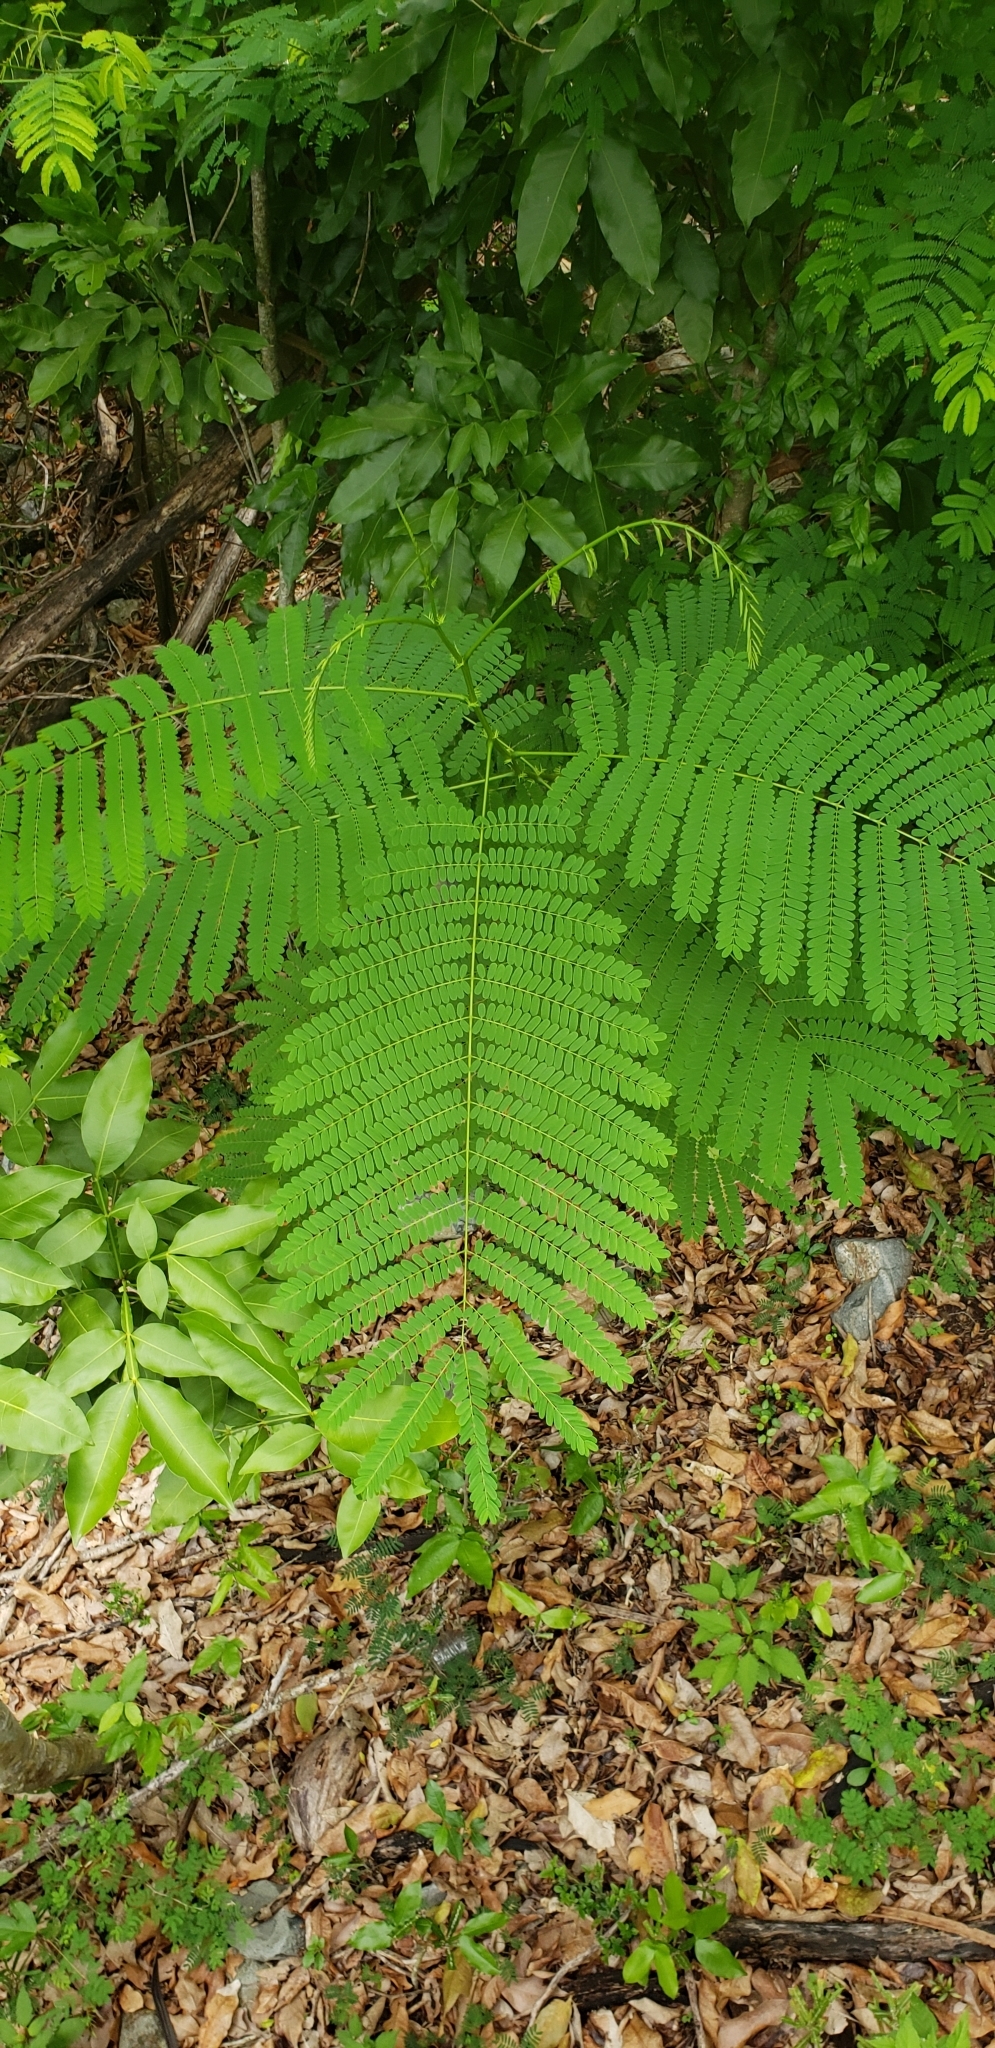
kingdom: Plantae
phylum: Tracheophyta
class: Magnoliopsida
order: Fabales
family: Fabaceae
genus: Delonix
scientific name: Delonix regia
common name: Royal poinciana
